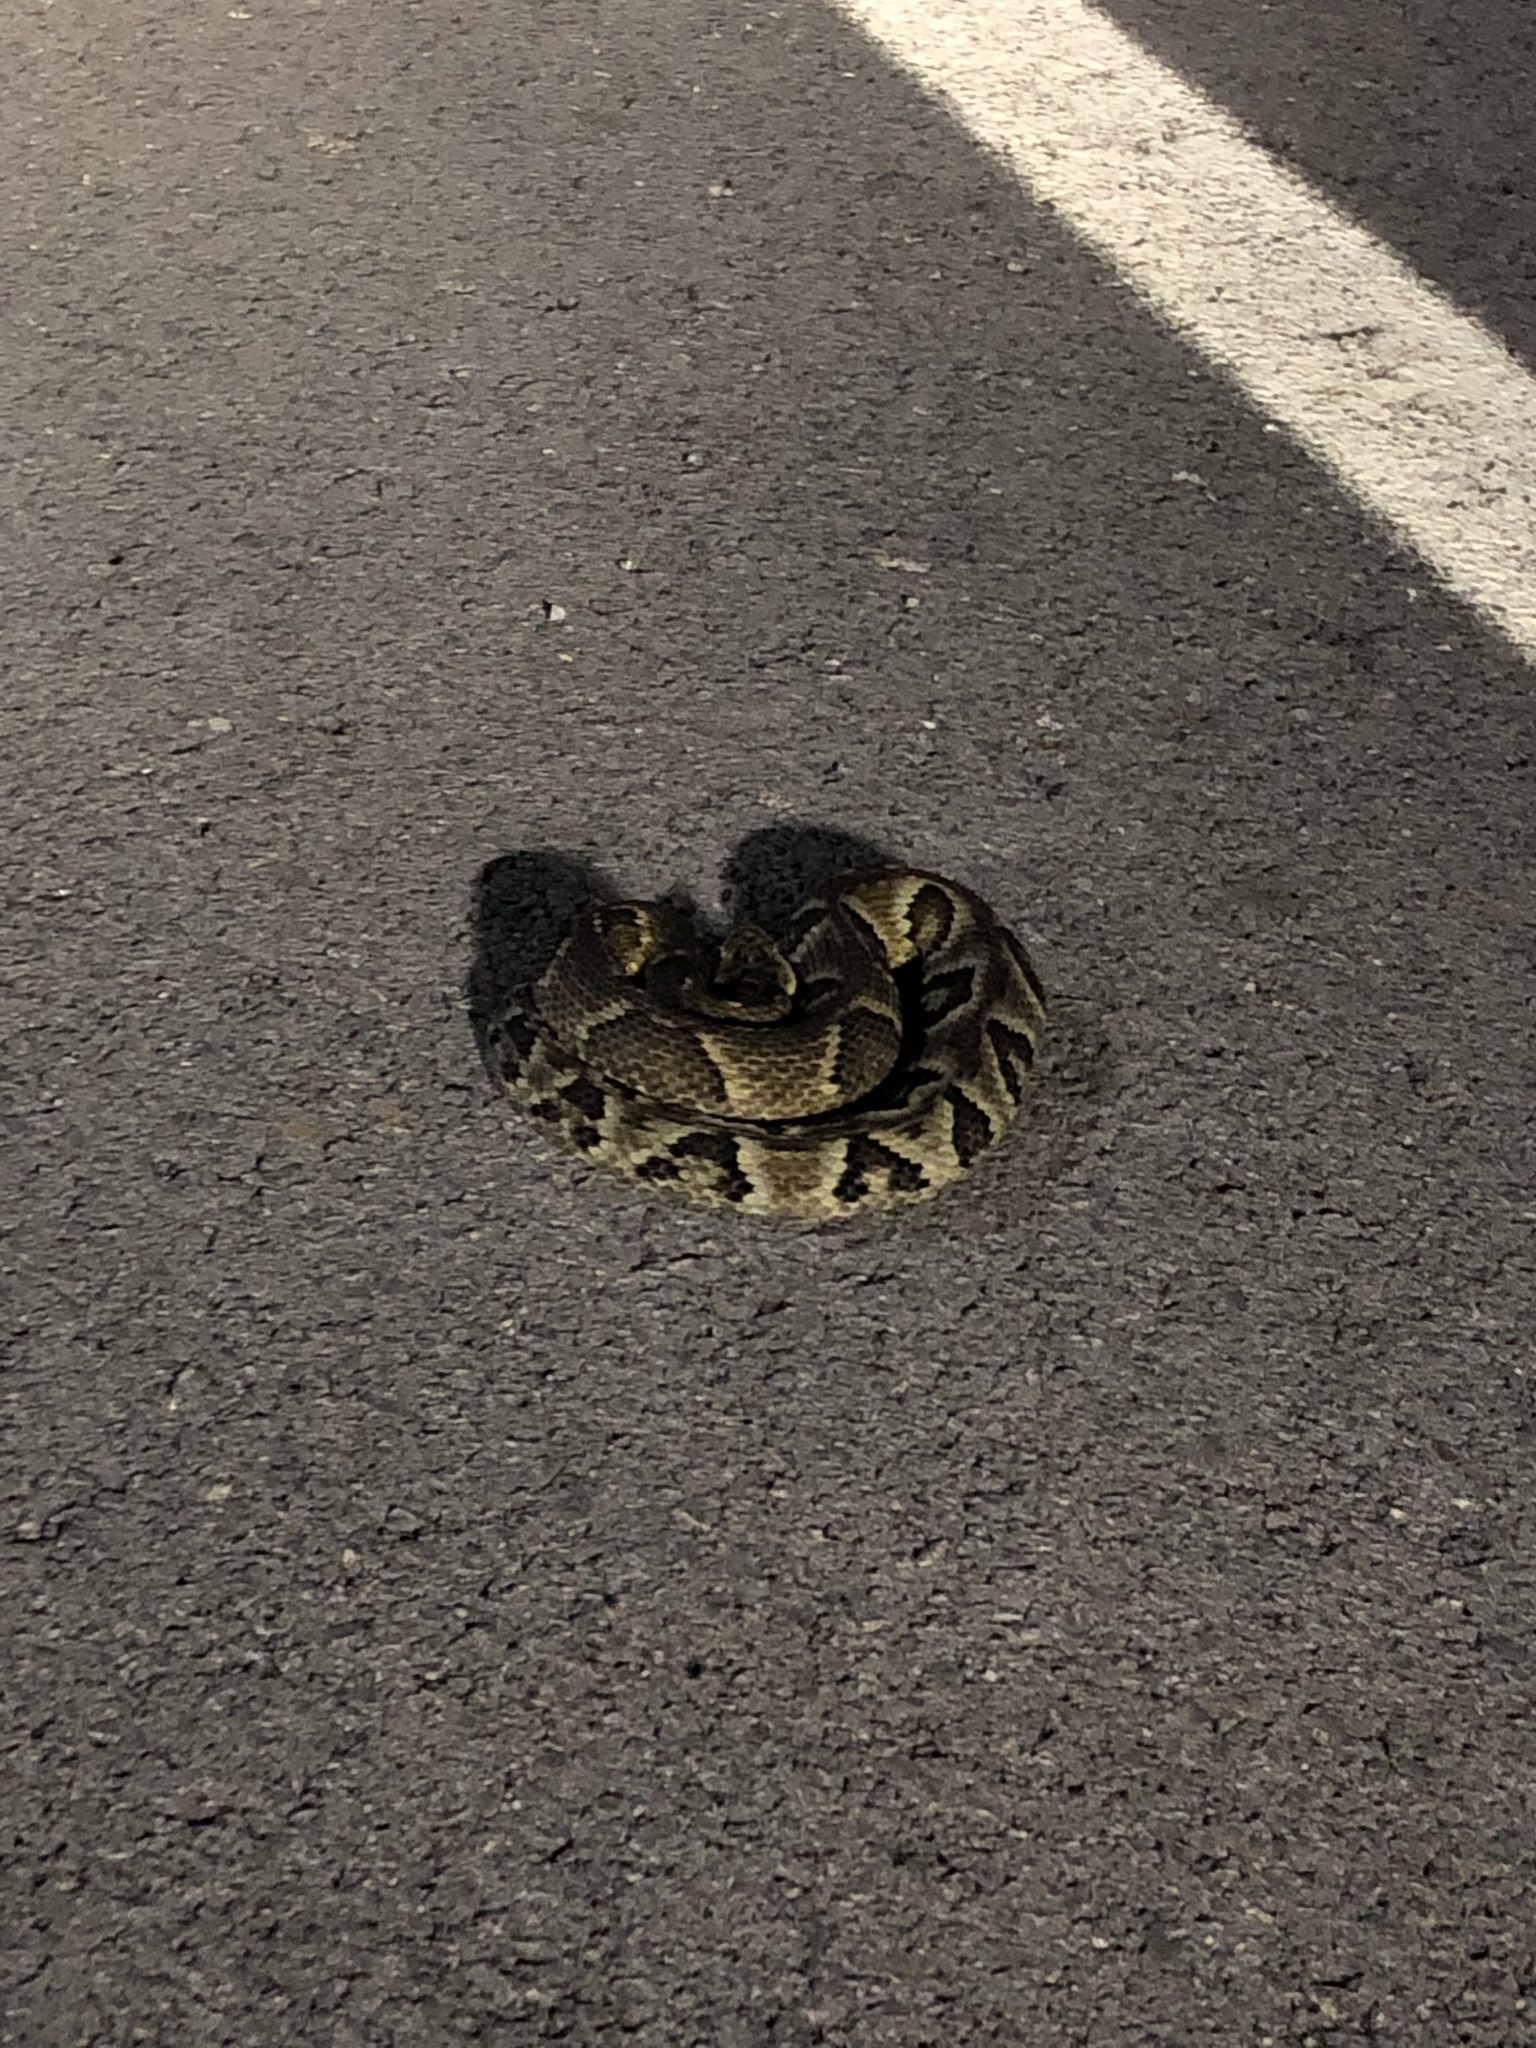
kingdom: Animalia
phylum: Chordata
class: Squamata
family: Viperidae
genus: Bothrops
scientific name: Bothrops jararaca
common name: Jararaca
